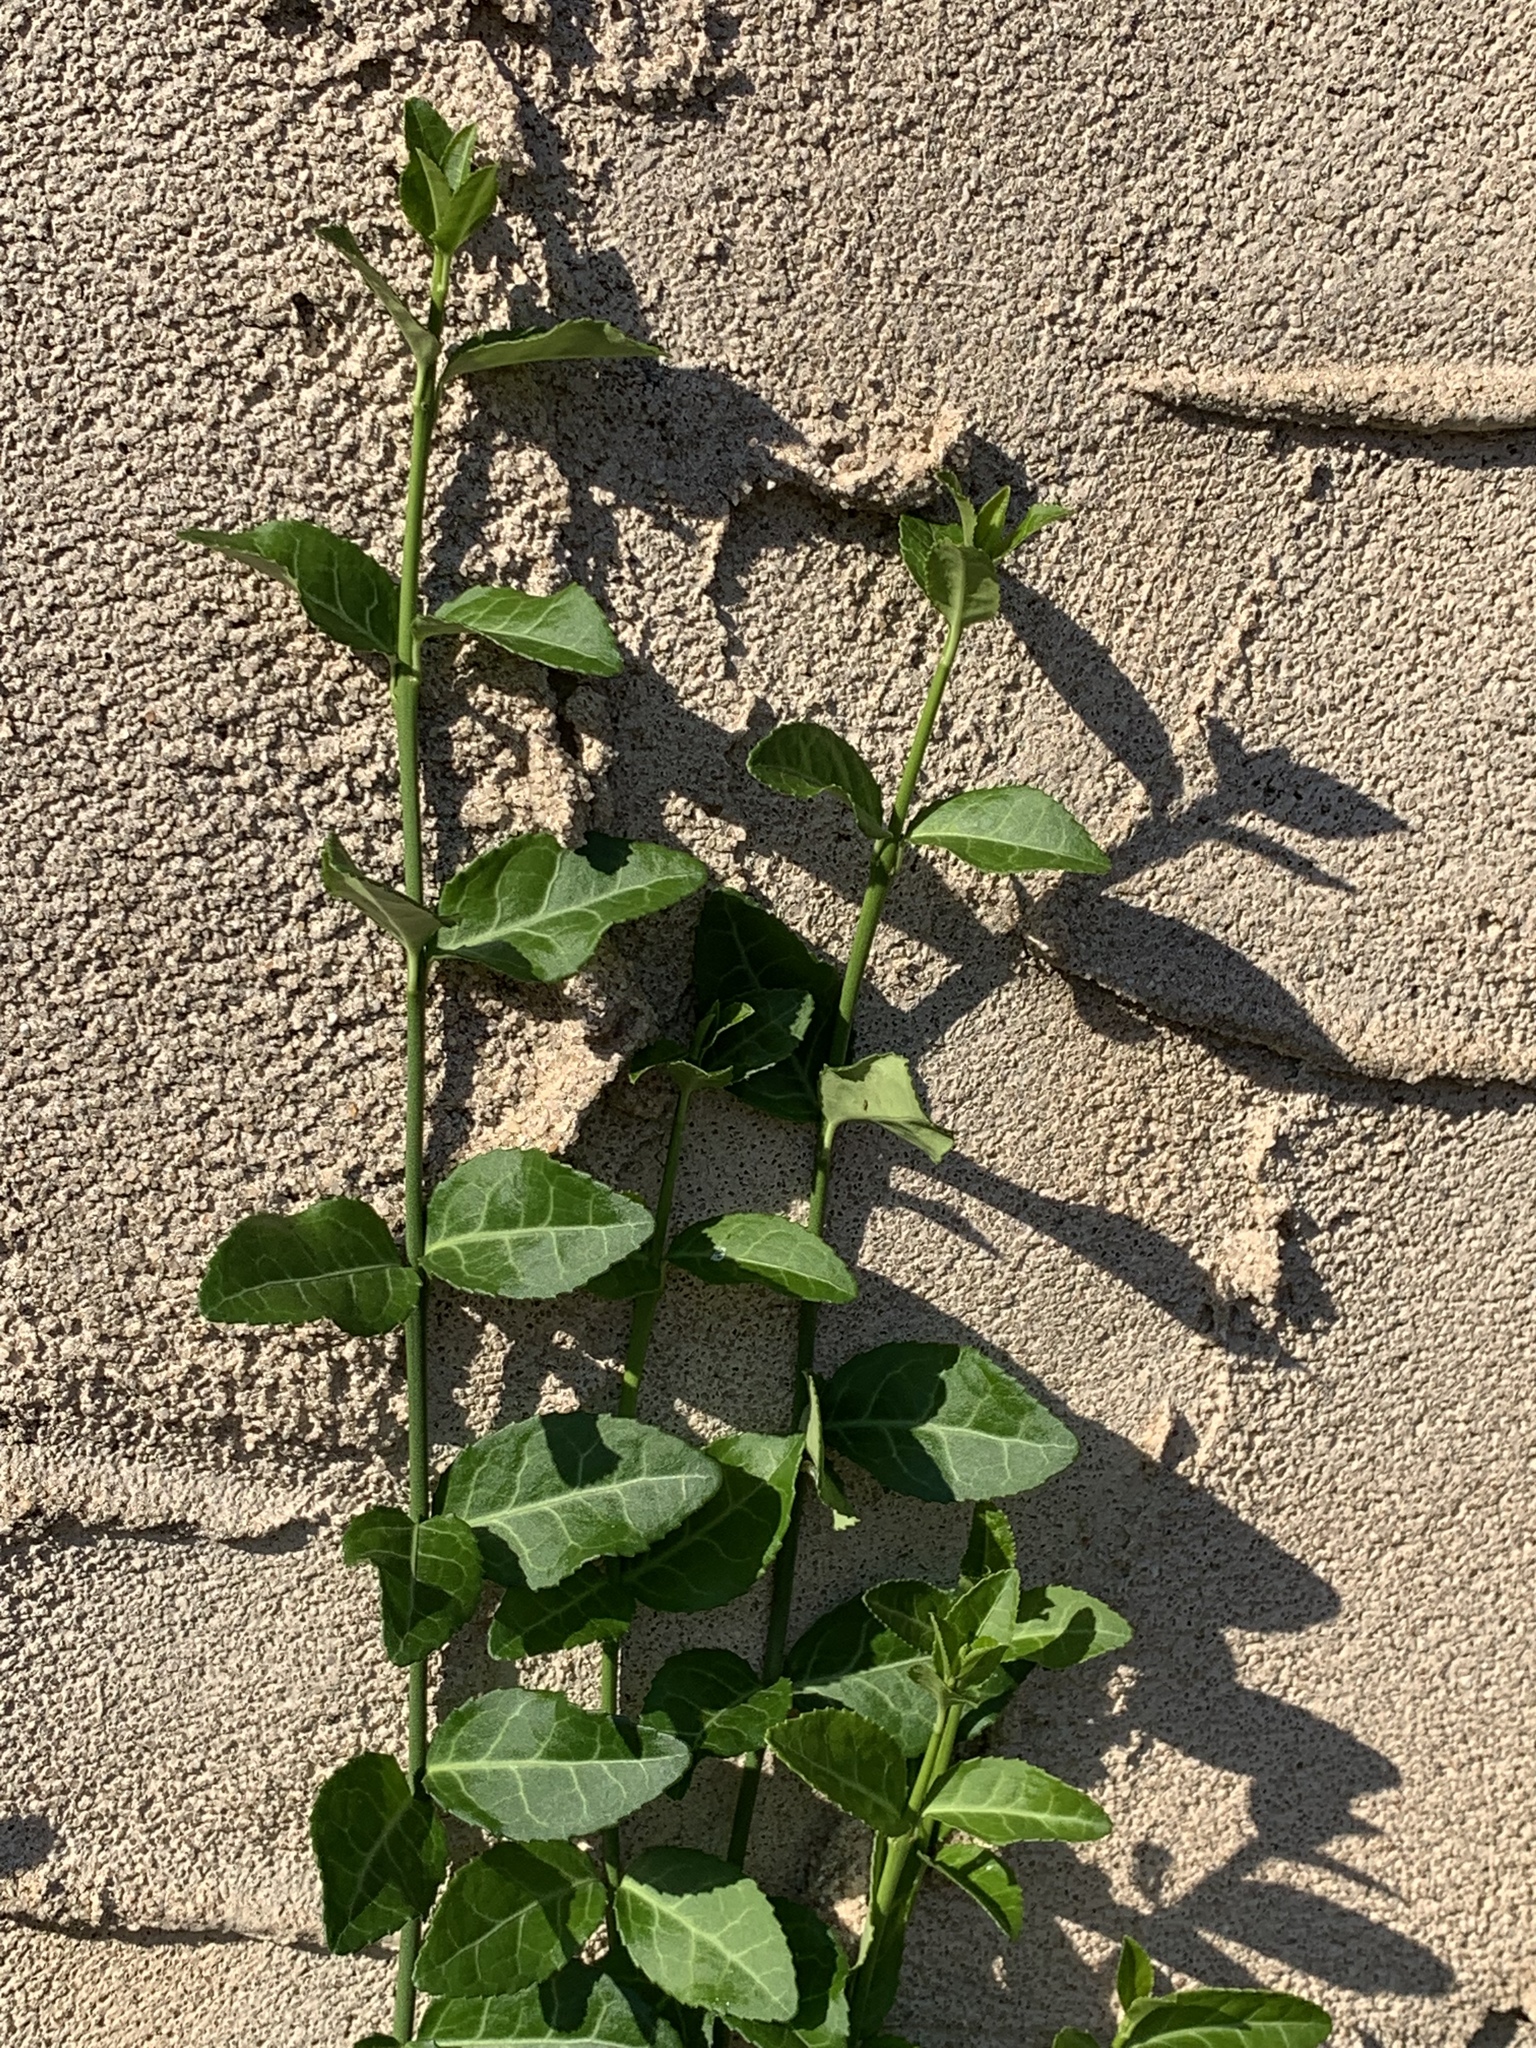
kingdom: Plantae
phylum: Tracheophyta
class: Magnoliopsida
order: Celastrales
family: Celastraceae
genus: Euonymus
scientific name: Euonymus fortunei
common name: Climbing euonymus
